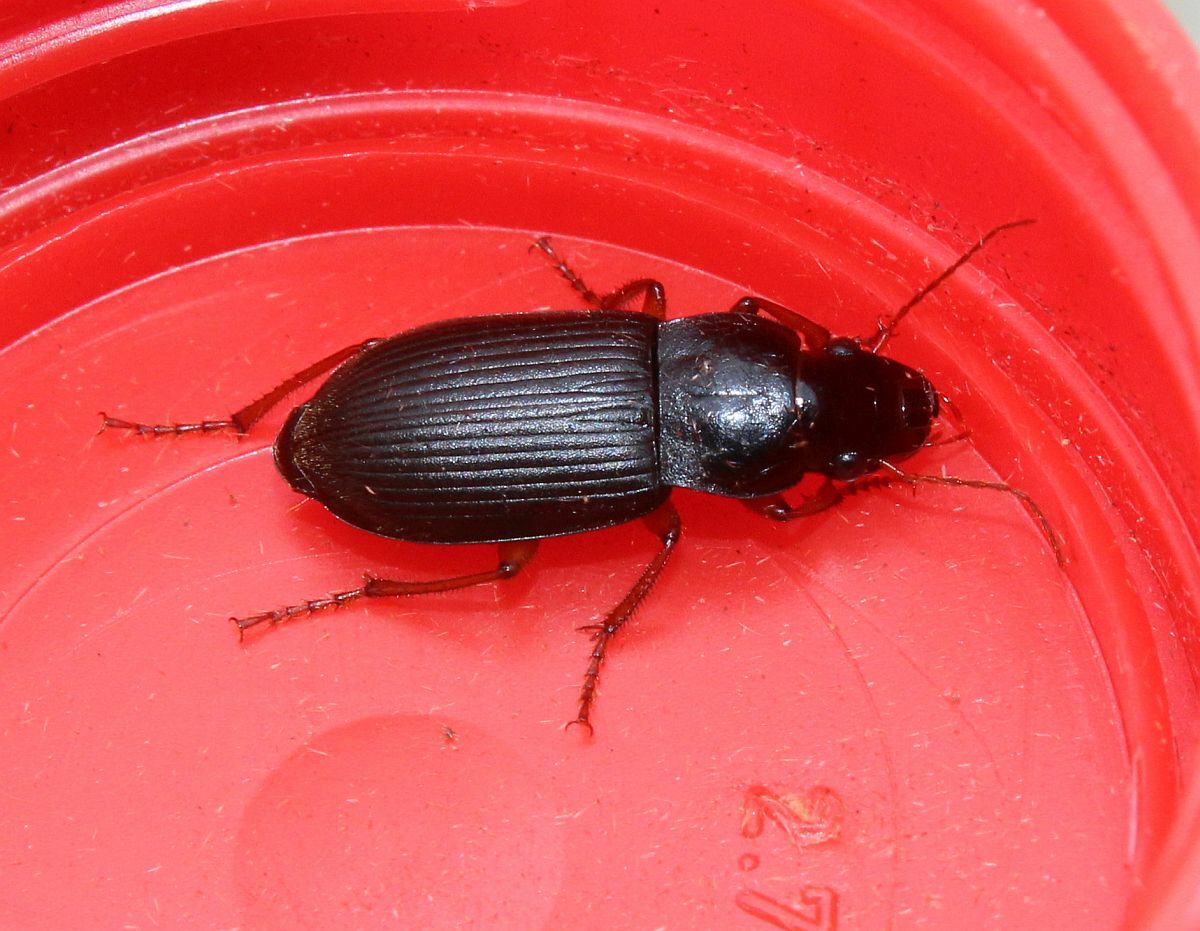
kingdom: Animalia
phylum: Arthropoda
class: Insecta
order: Coleoptera
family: Carabidae
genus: Harpalus
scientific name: Harpalus rufipes
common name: Strawberry harp ground beetle
